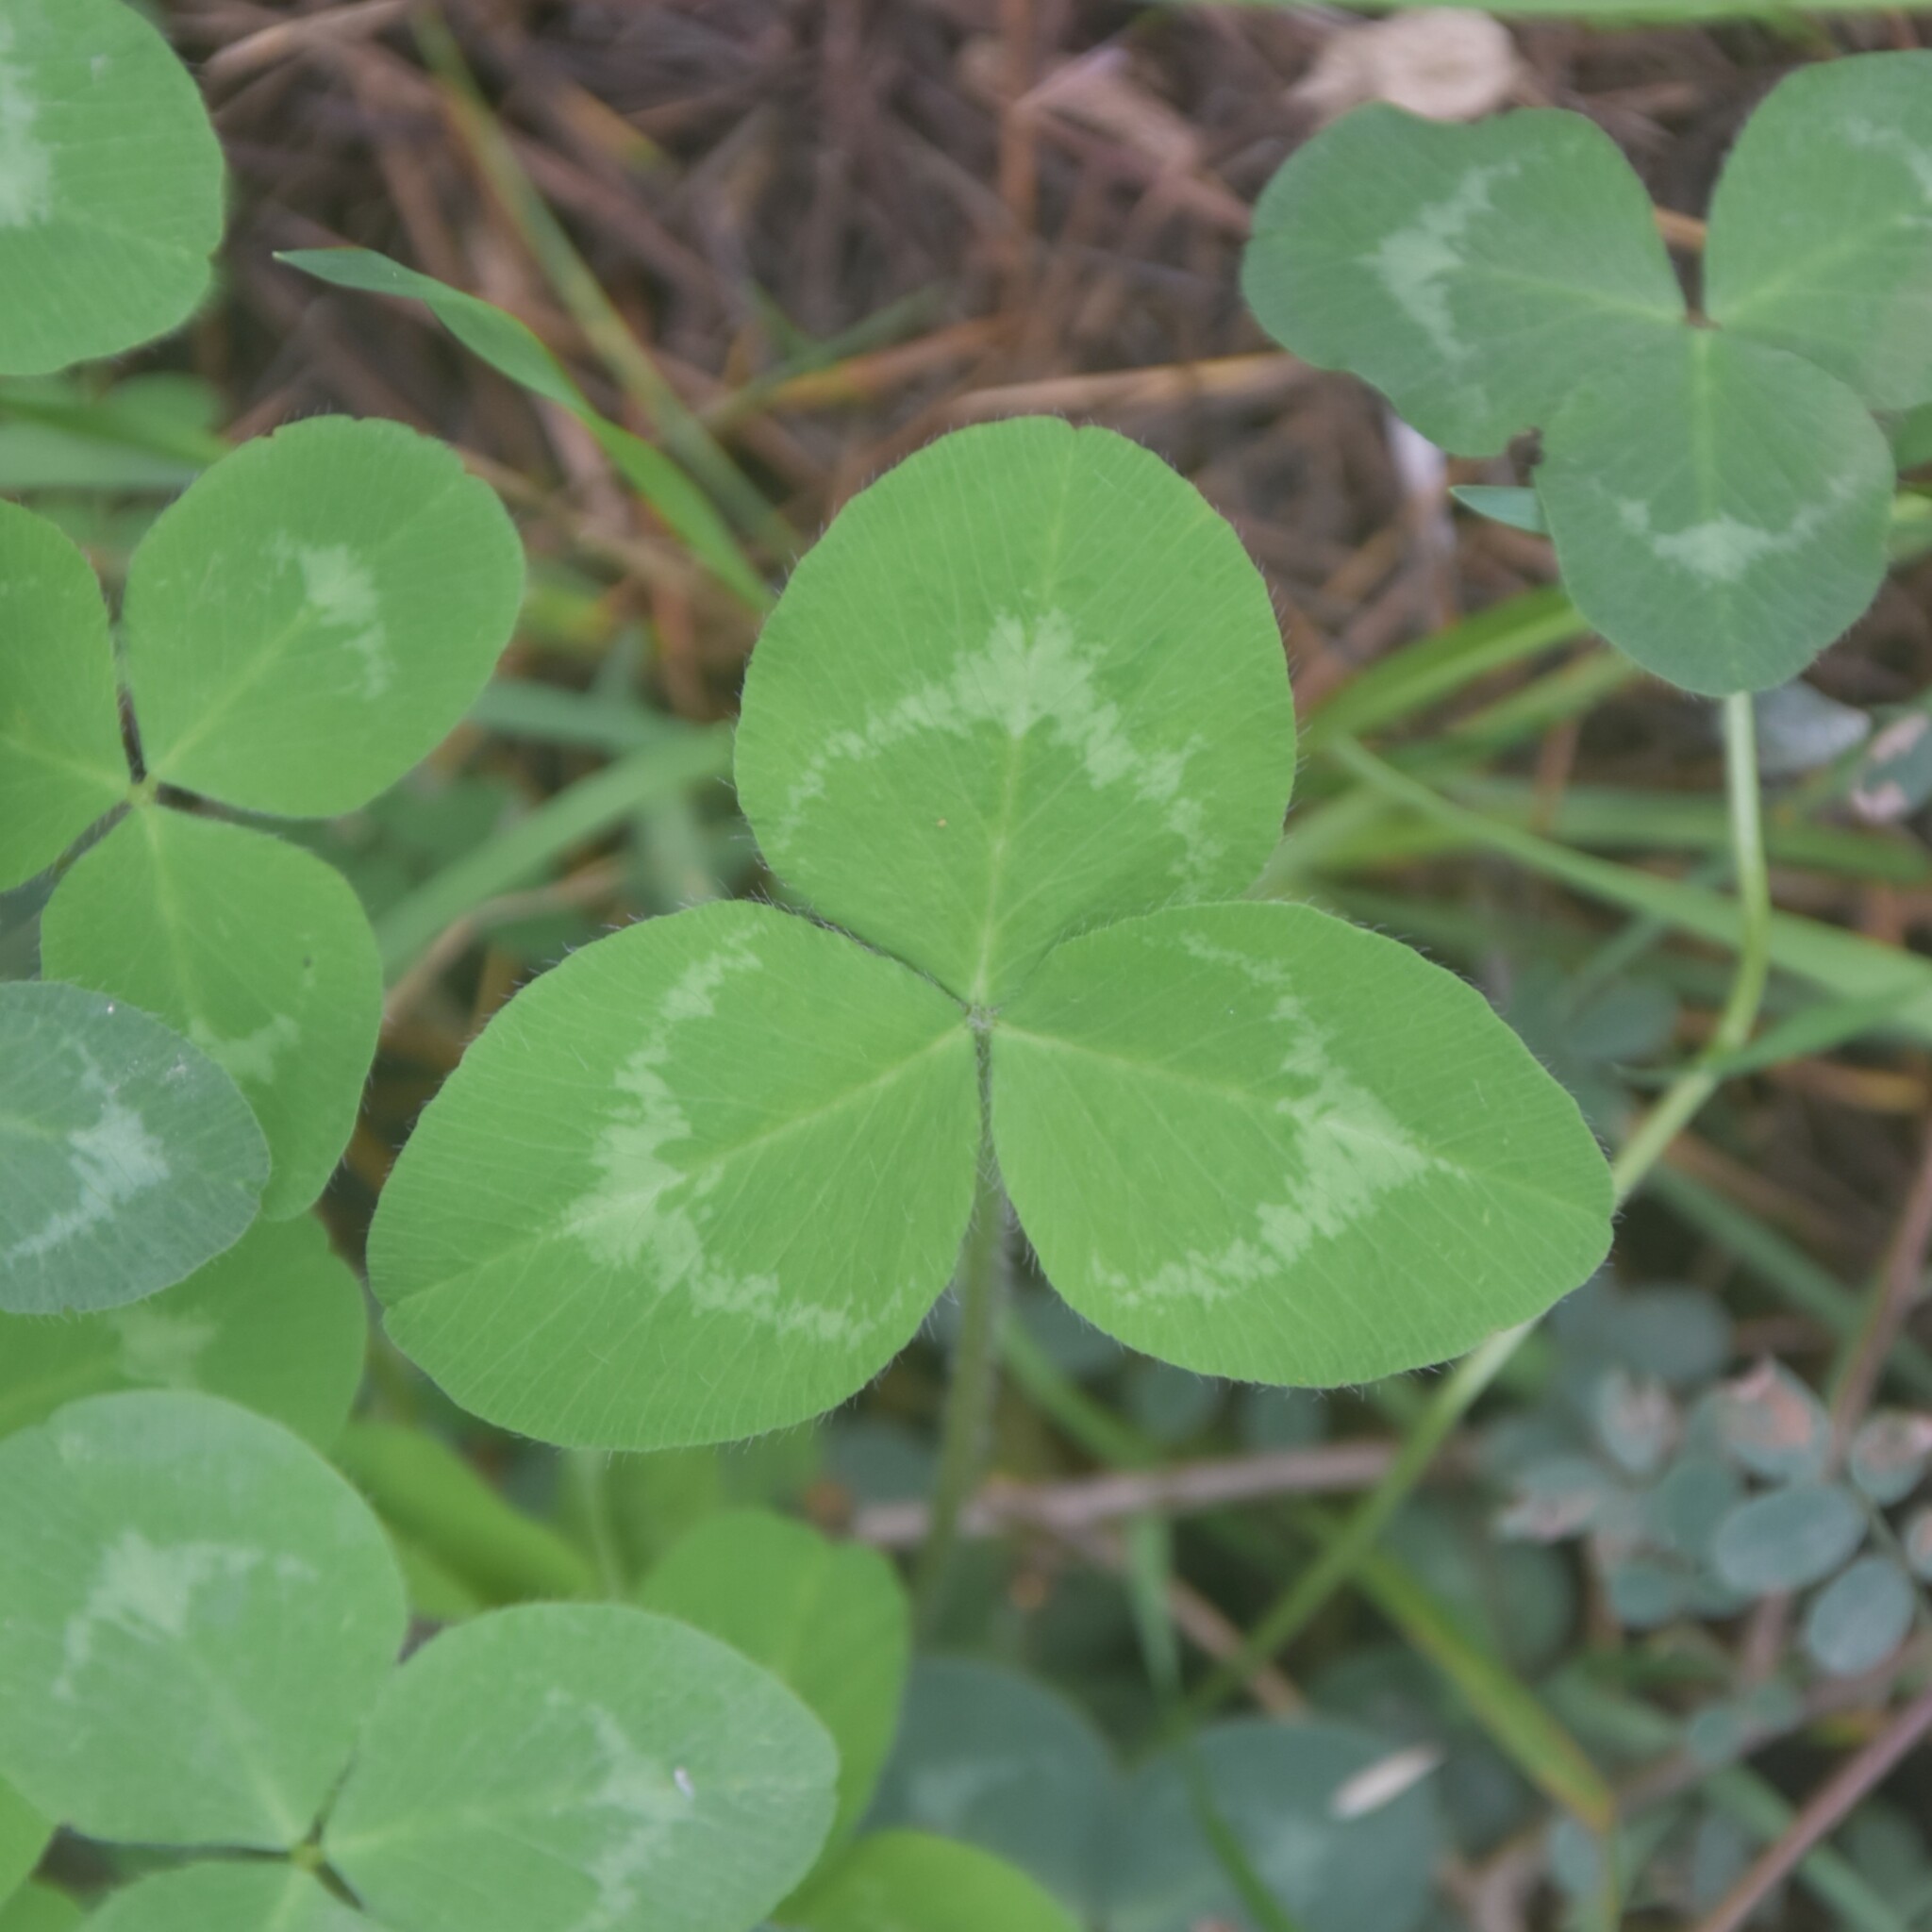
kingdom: Plantae
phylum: Tracheophyta
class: Magnoliopsida
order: Fabales
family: Fabaceae
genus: Trifolium
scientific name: Trifolium pratense
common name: Red clover
